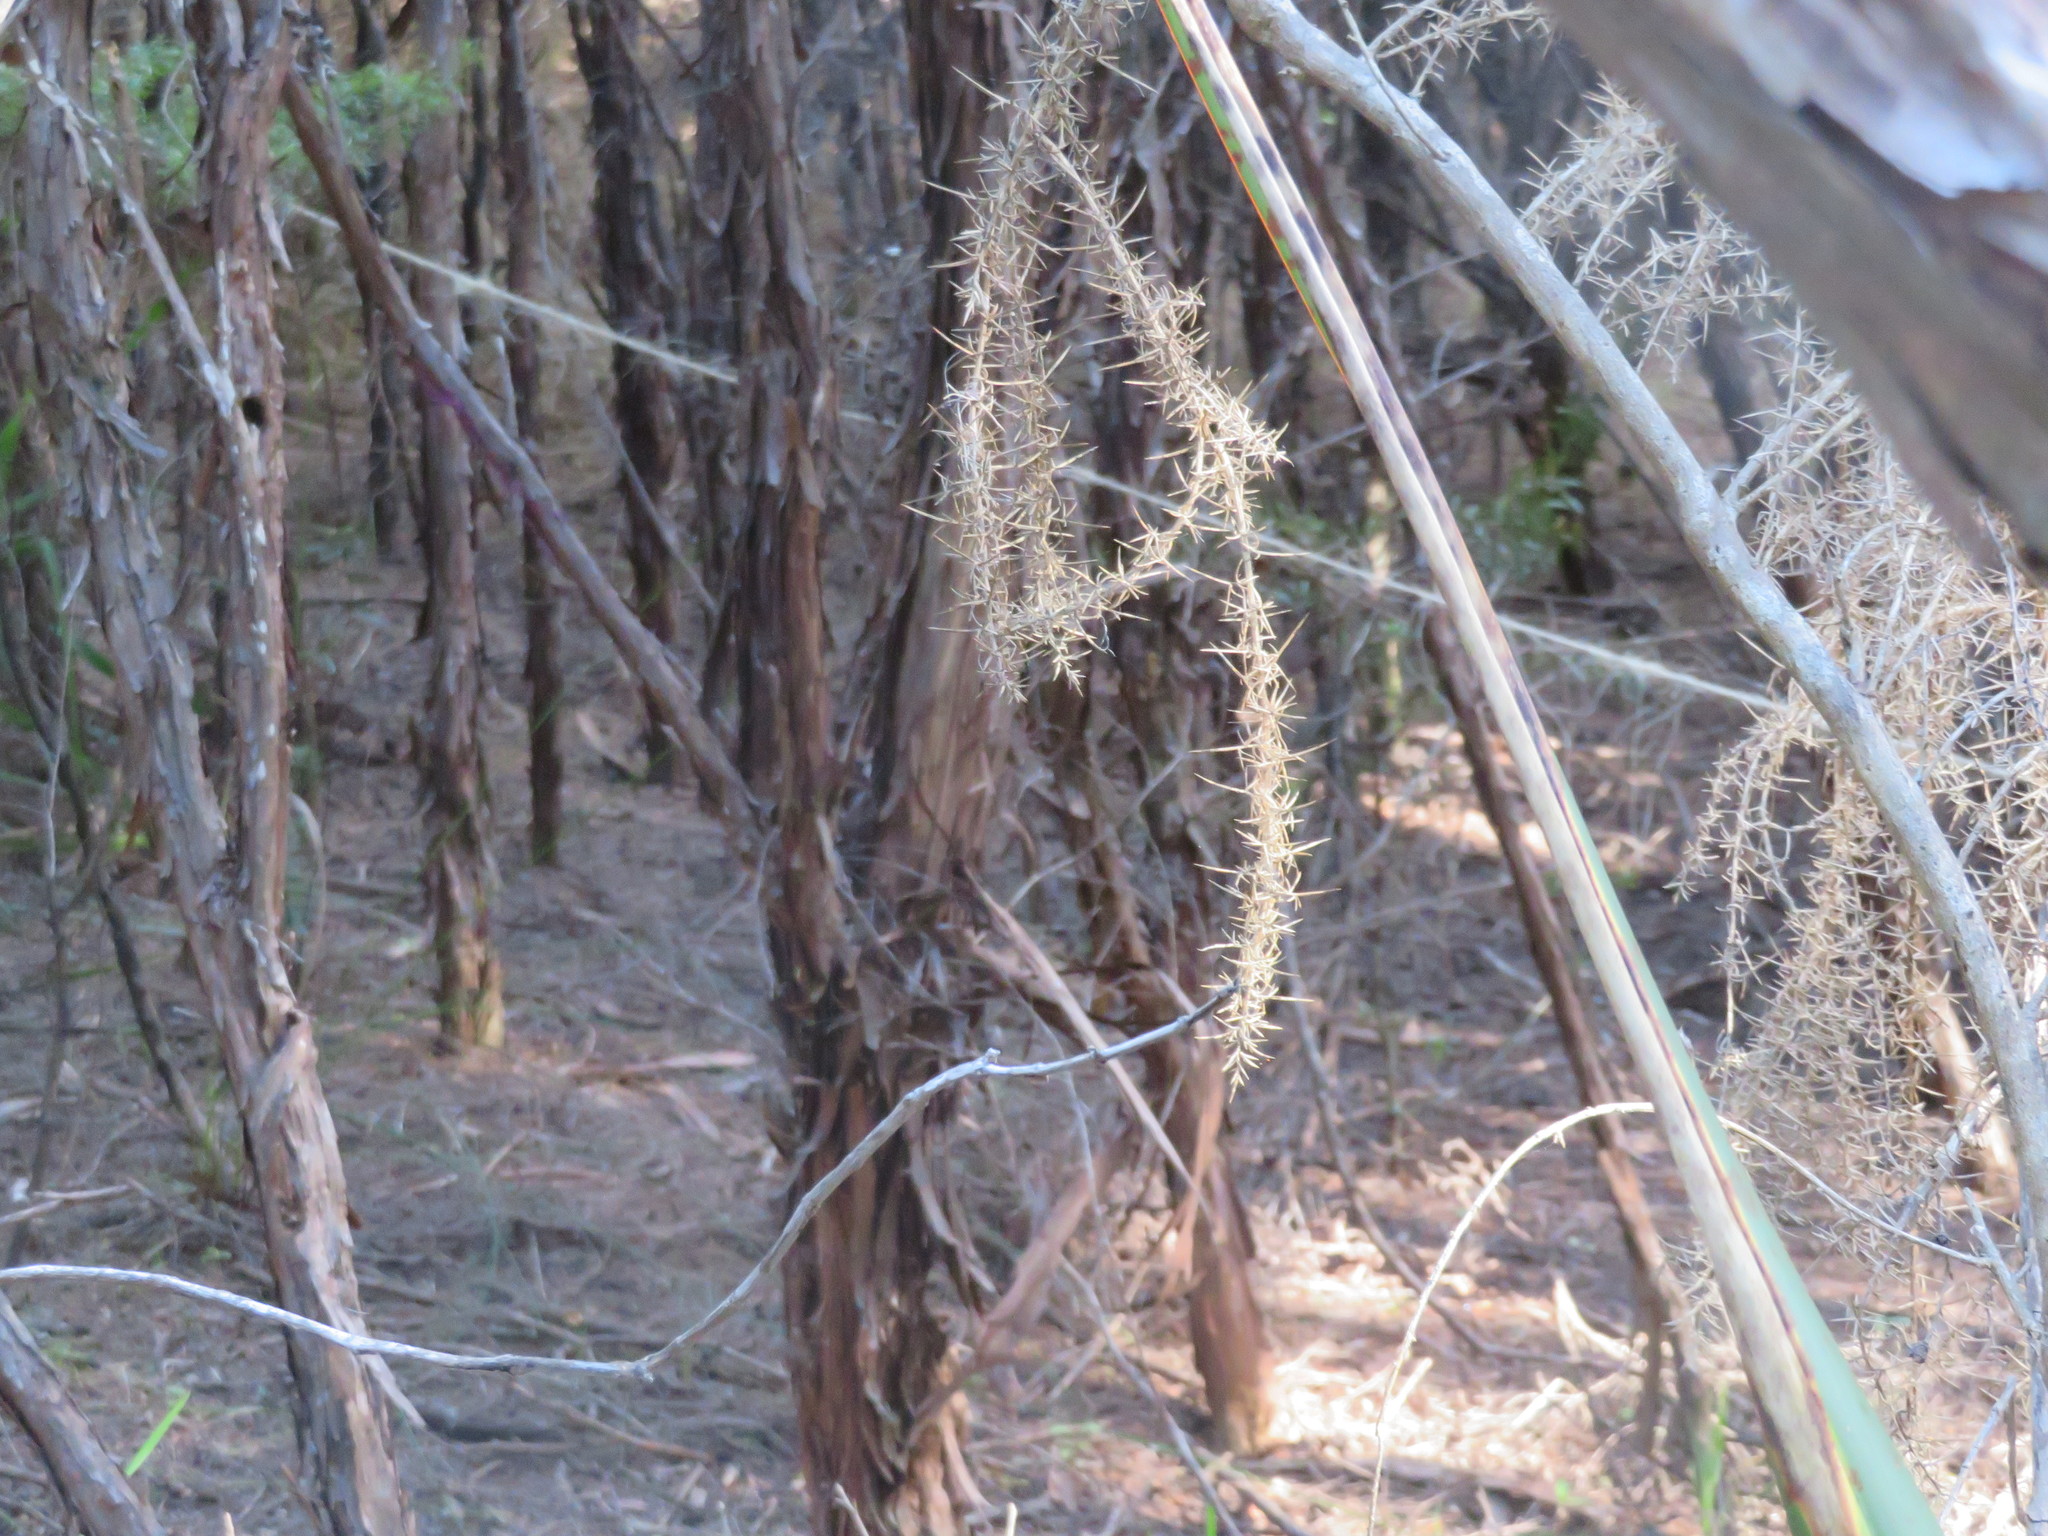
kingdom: Plantae
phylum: Tracheophyta
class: Magnoliopsida
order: Fabales
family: Fabaceae
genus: Ulex
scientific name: Ulex europaeus
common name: Common gorse
